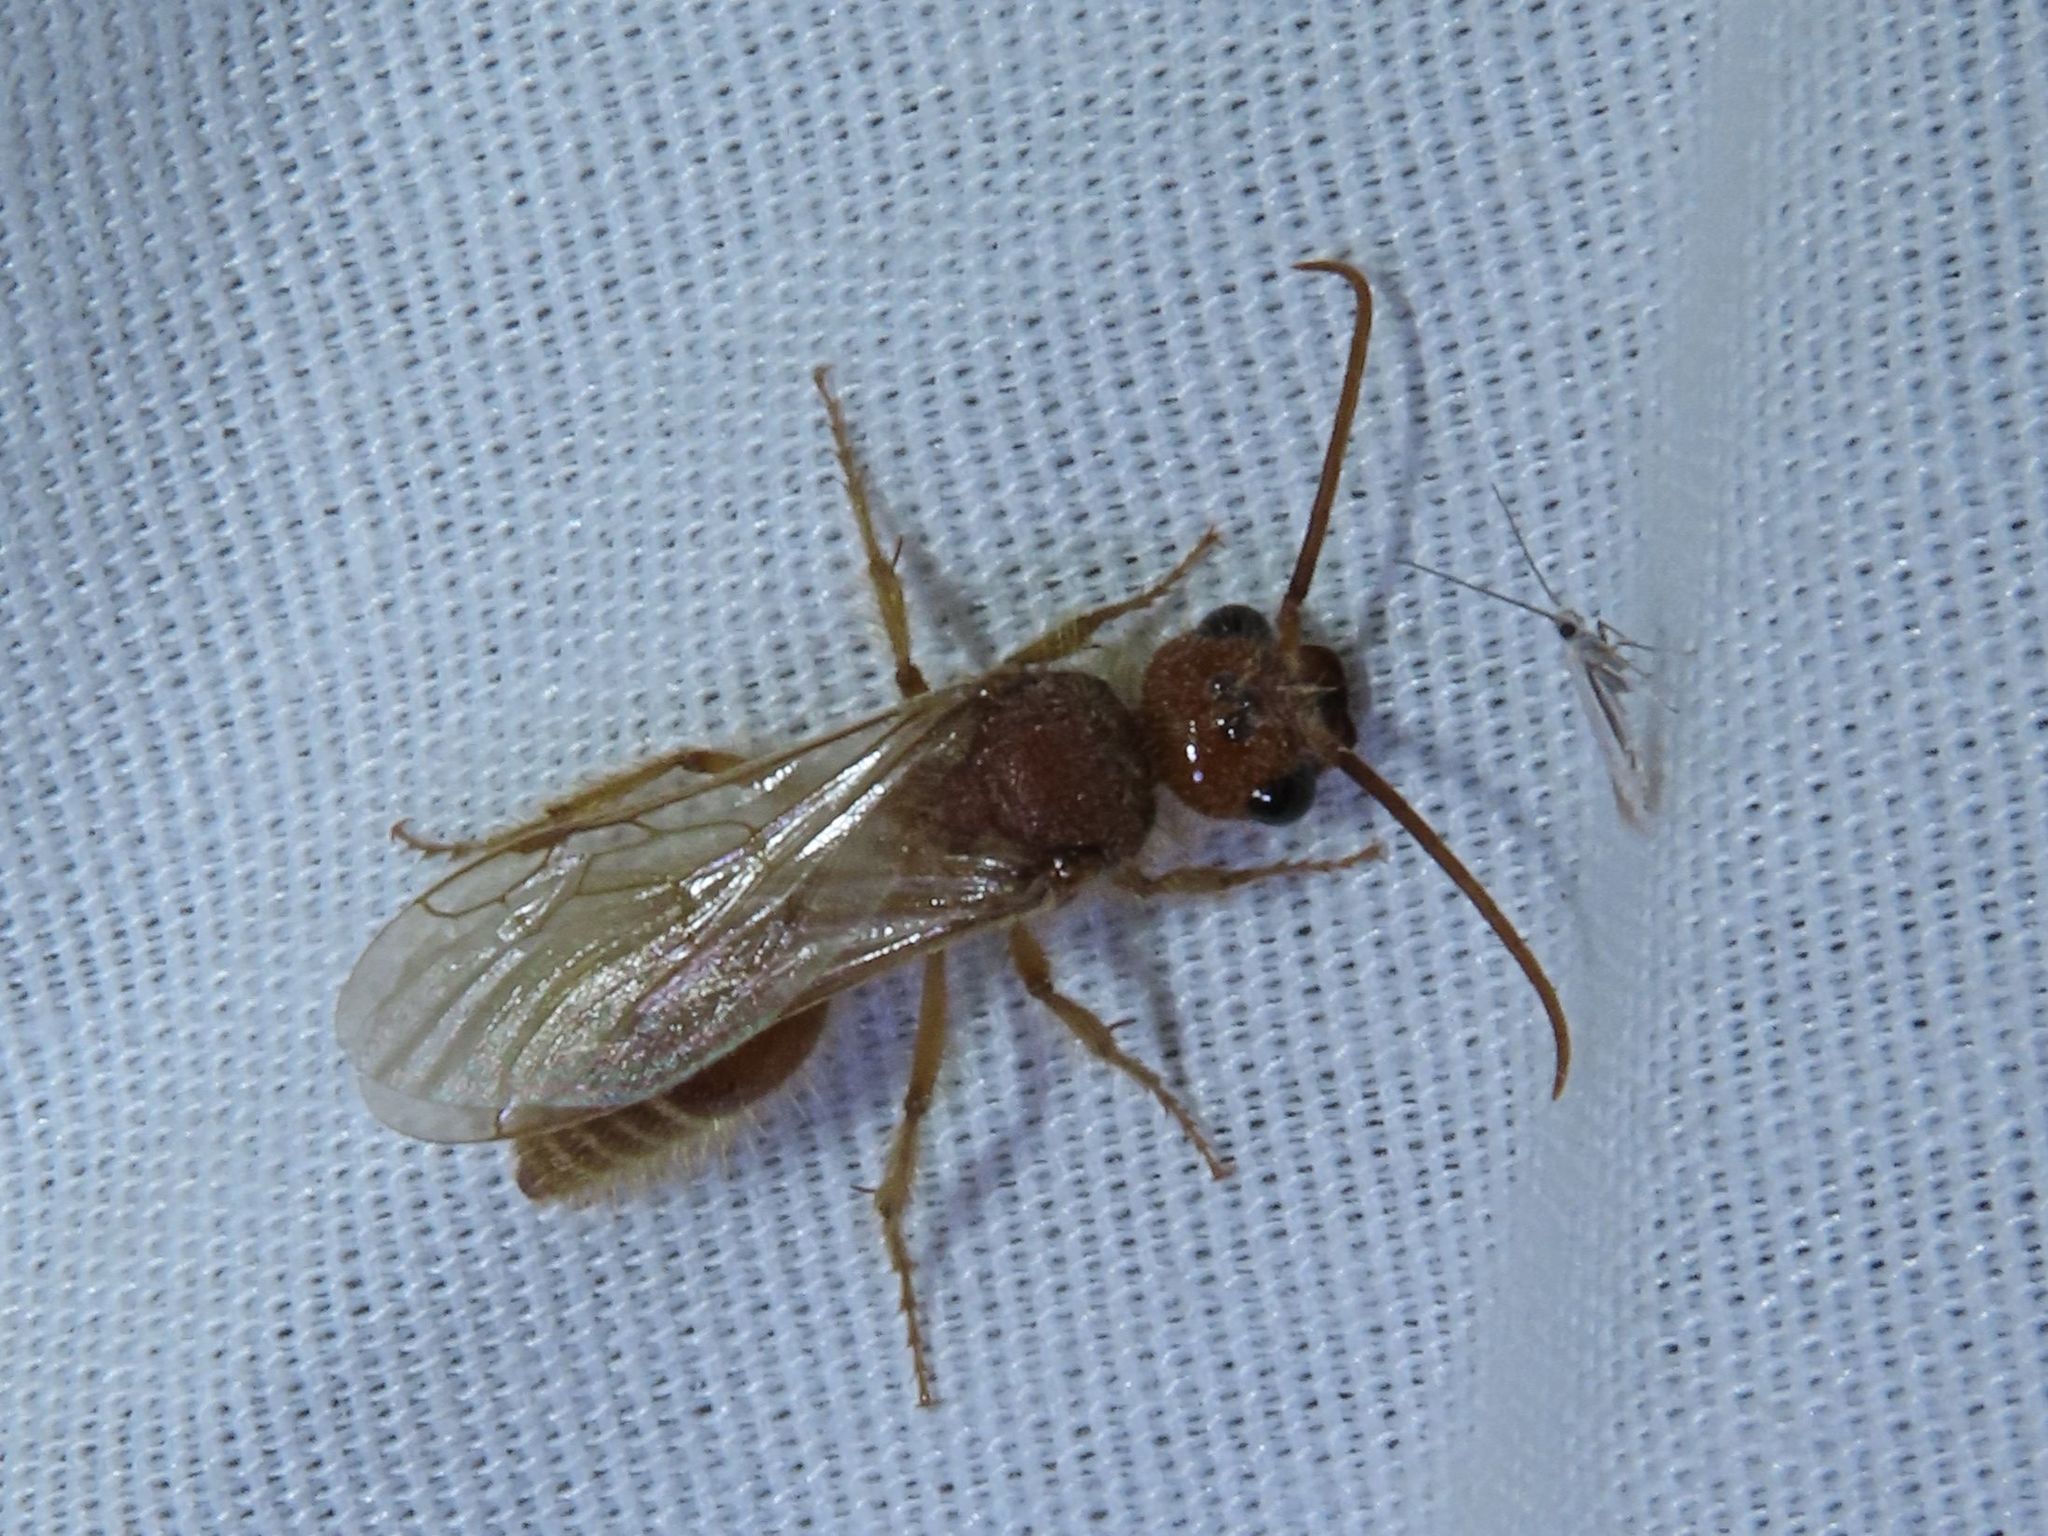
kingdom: Animalia
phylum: Arthropoda
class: Insecta
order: Hymenoptera
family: Mutillidae
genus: Odontophotopsis
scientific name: Odontophotopsis inconspicua
